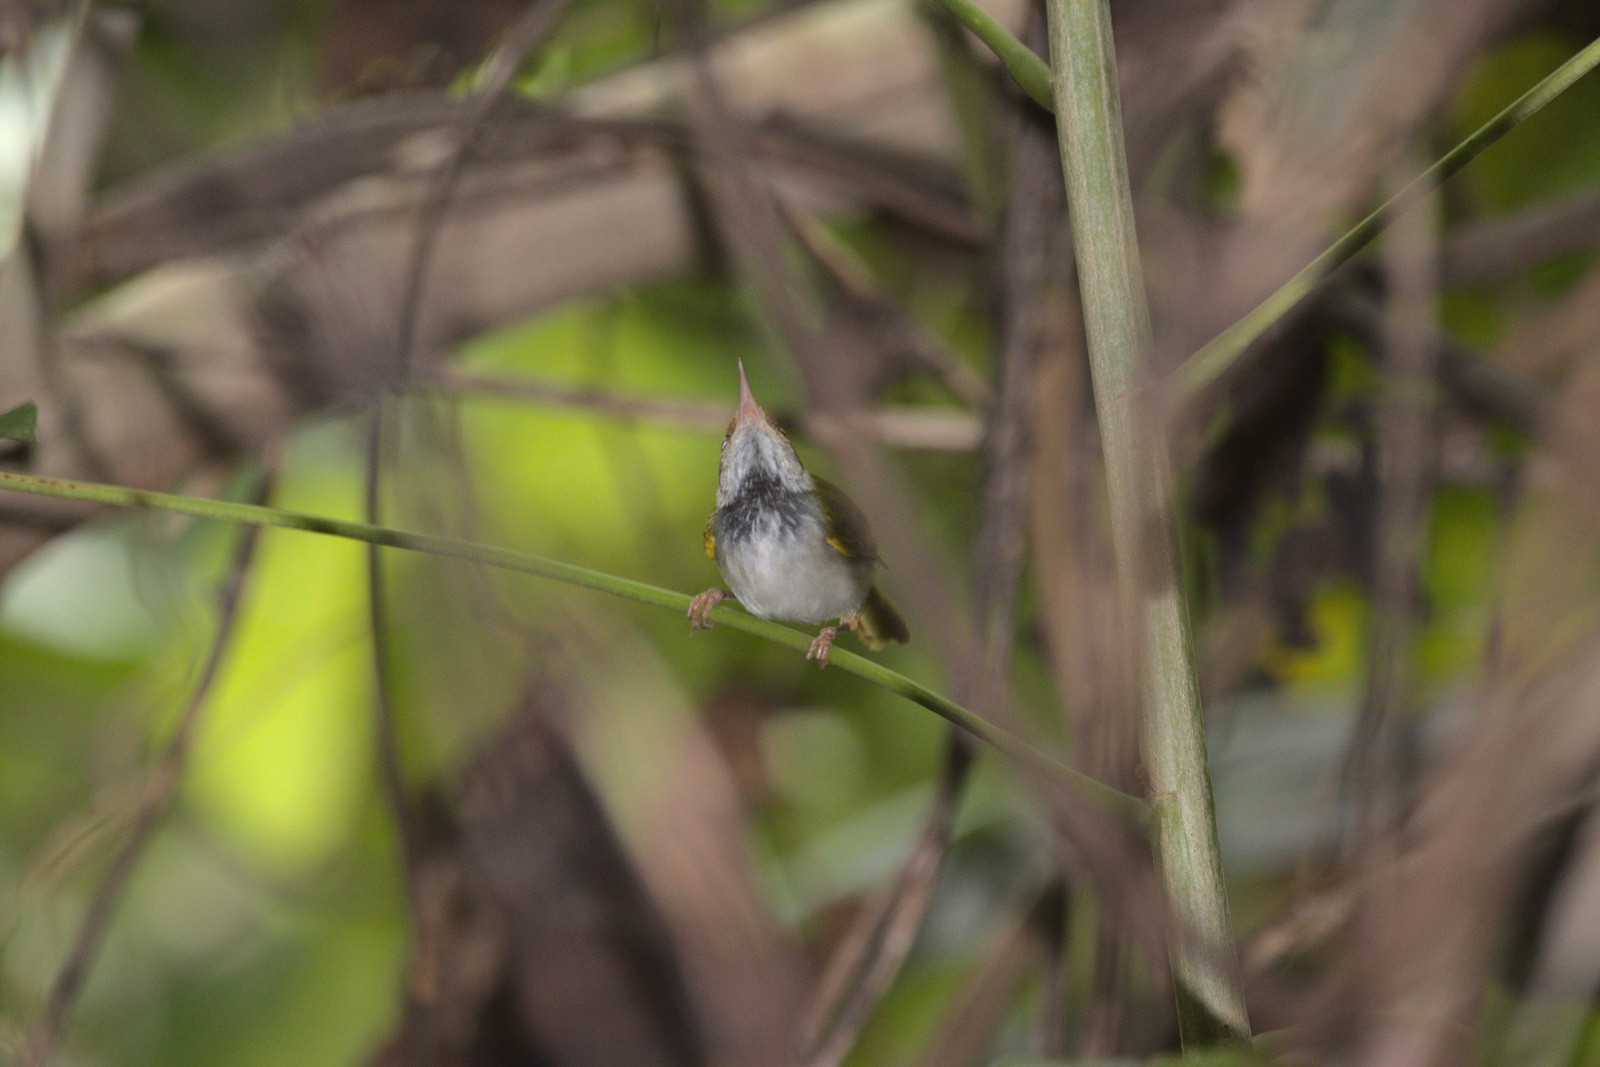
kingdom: Animalia
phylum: Chordata
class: Aves
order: Passeriformes
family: Cisticolidae
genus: Orthotomus
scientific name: Orthotomus atrogularis
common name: Dark-necked tailorbird
